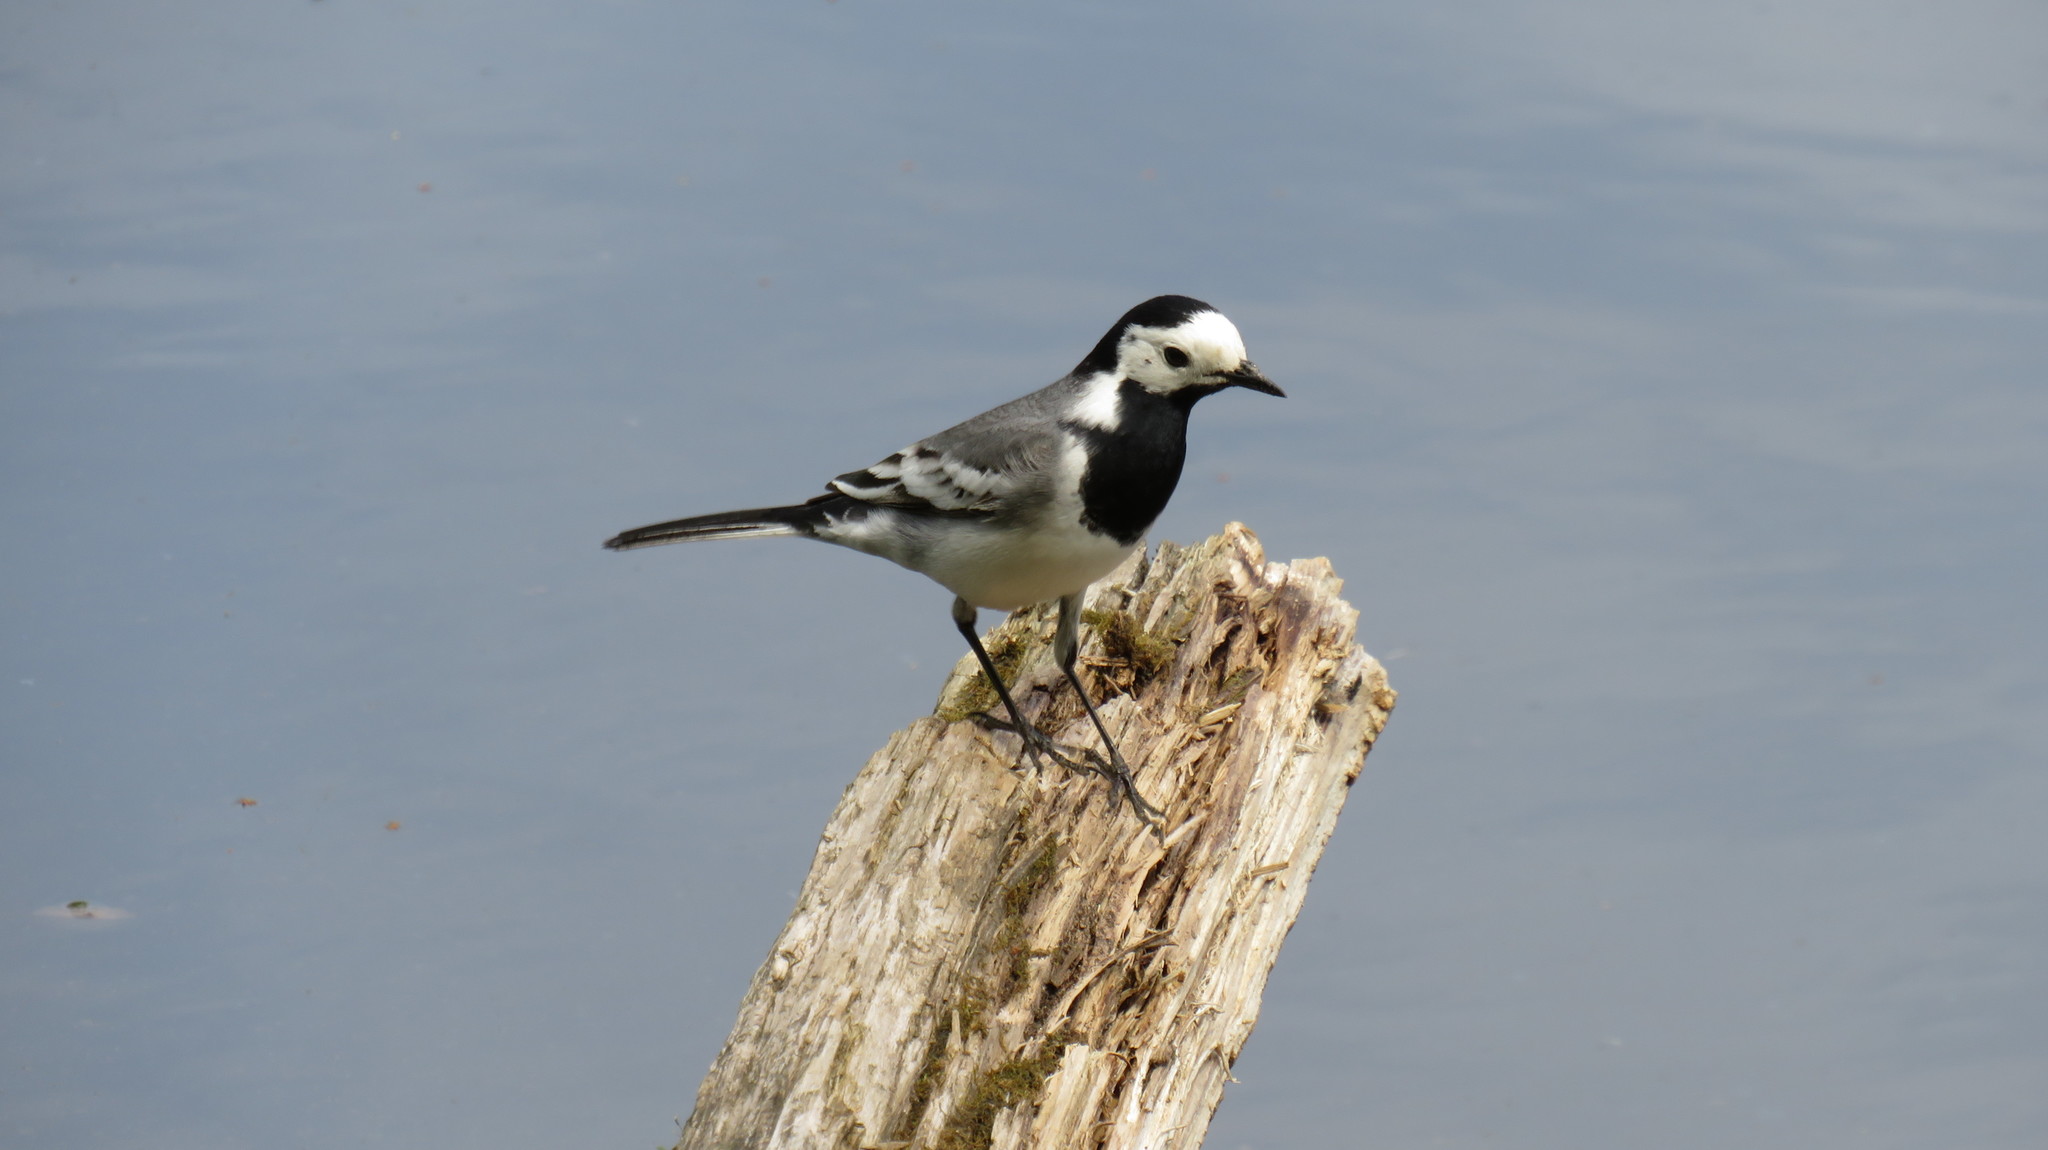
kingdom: Animalia
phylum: Chordata
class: Aves
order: Passeriformes
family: Motacillidae
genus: Motacilla
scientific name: Motacilla alba
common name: White wagtail
